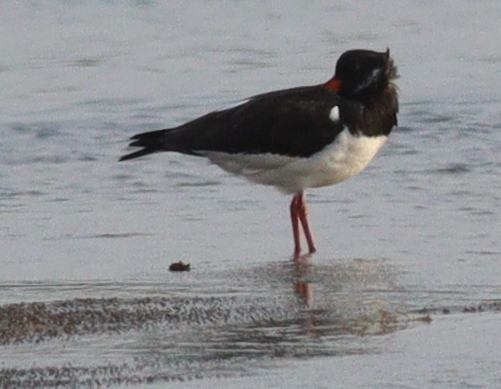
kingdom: Animalia
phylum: Chordata
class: Aves
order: Charadriiformes
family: Haematopodidae
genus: Haematopus
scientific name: Haematopus ostralegus
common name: Eurasian oystercatcher
